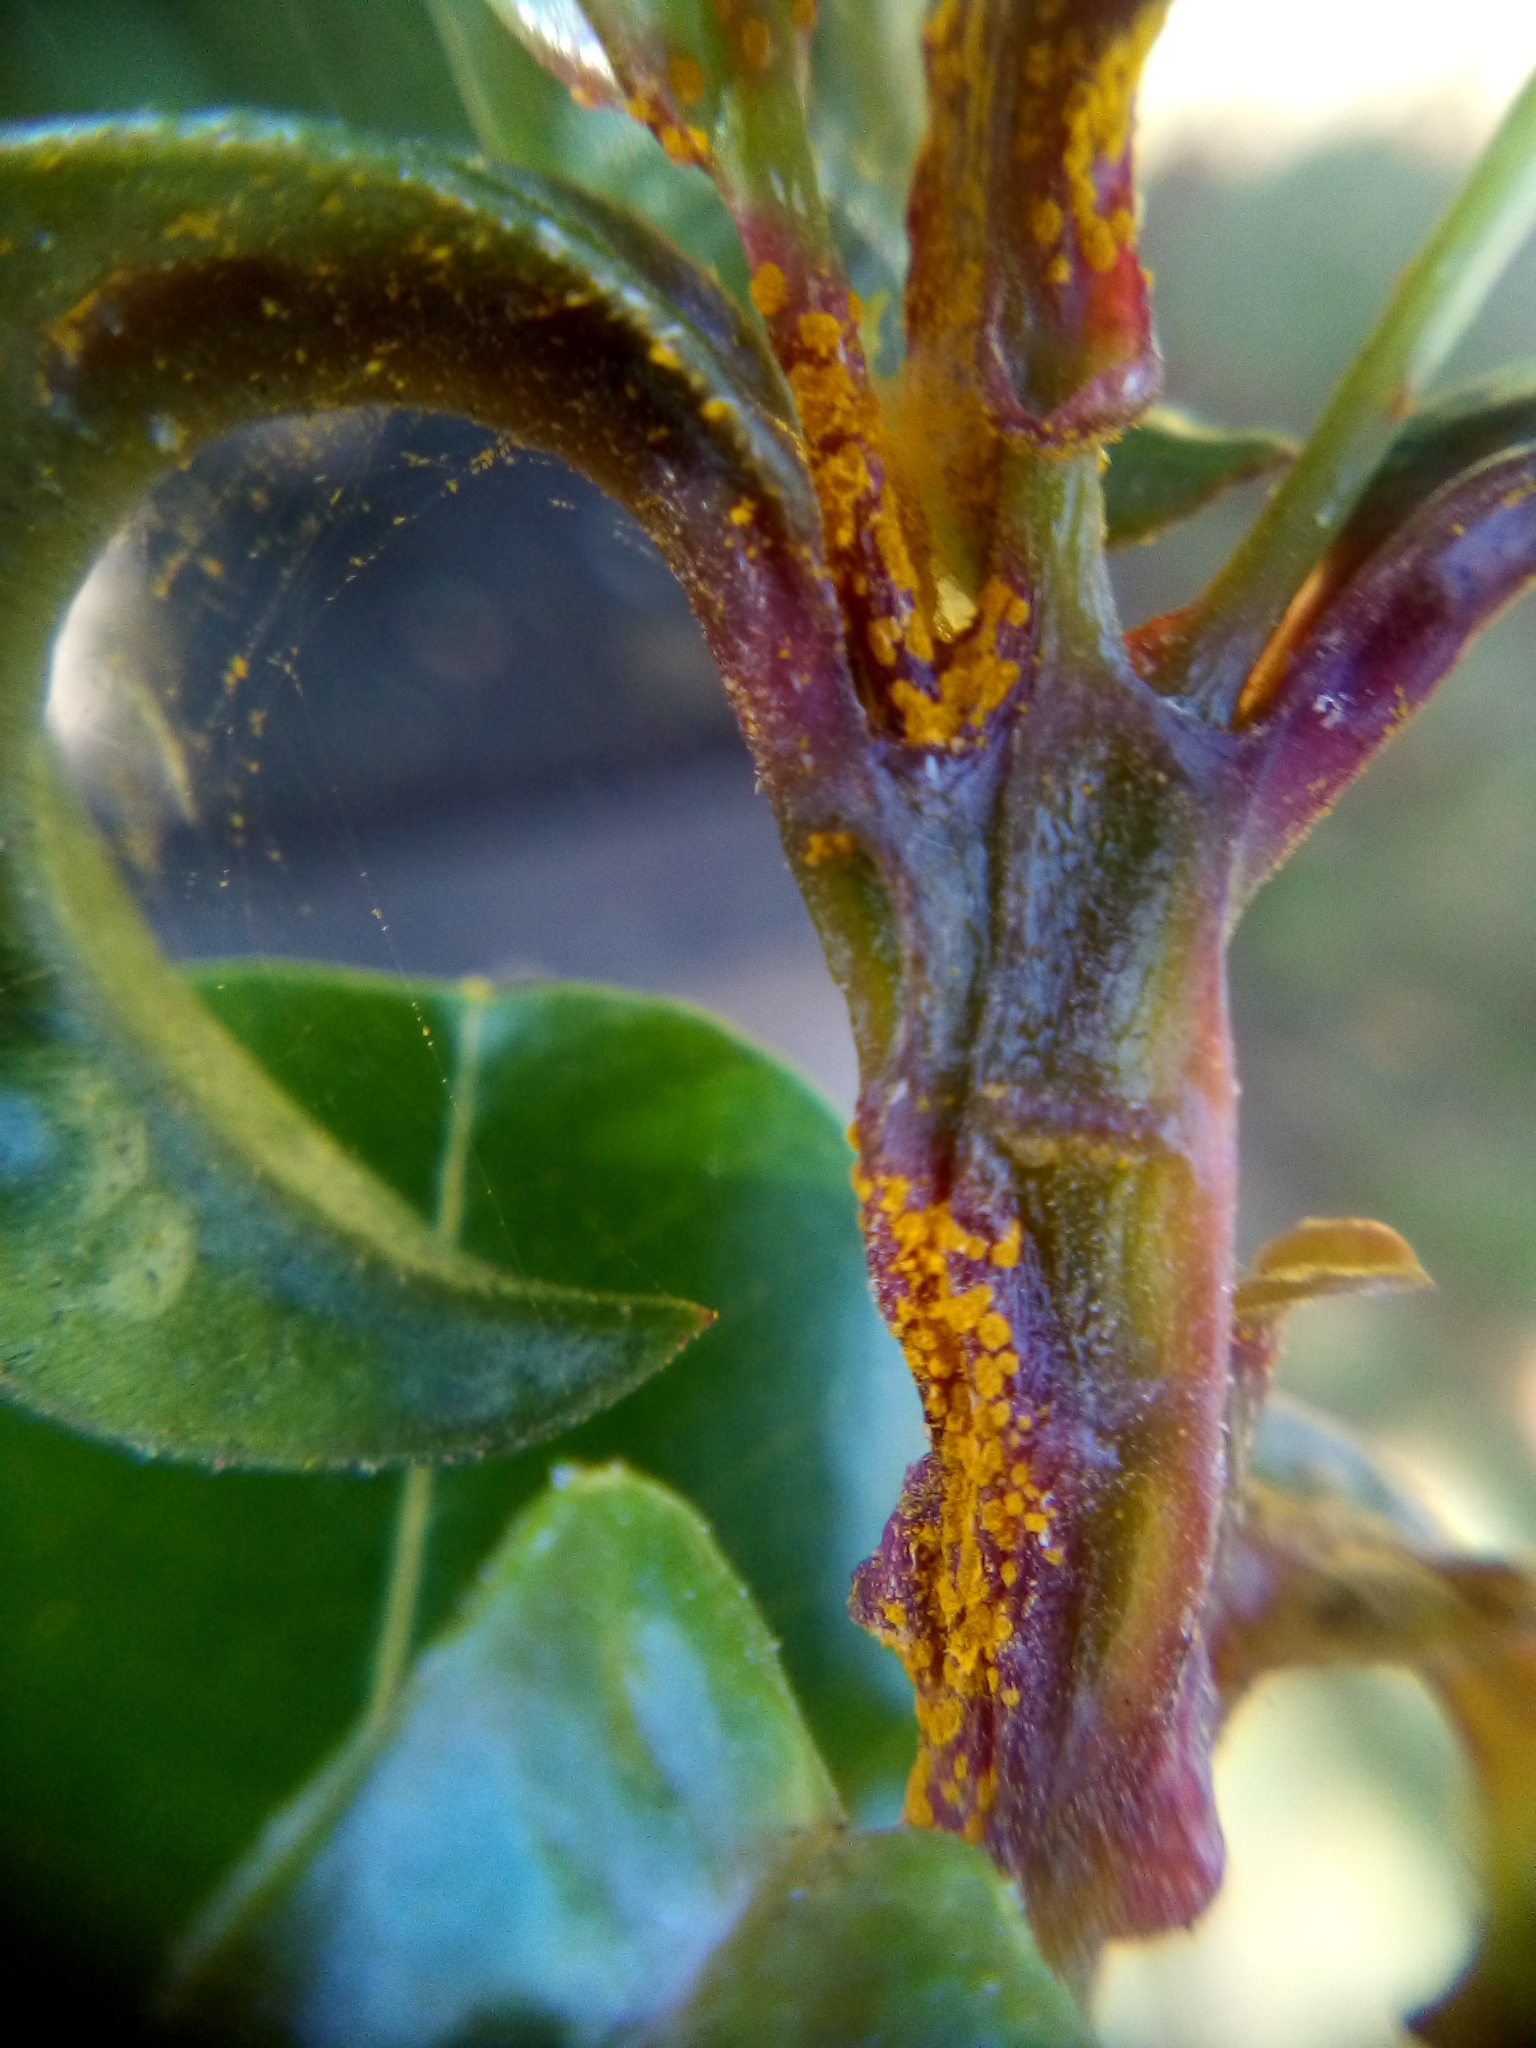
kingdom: Fungi
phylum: Basidiomycota
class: Pucciniomycetes
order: Pucciniales
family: Sphaerophragmiaceae
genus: Austropuccinia
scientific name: Austropuccinia psidii
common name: Myrtle rust
